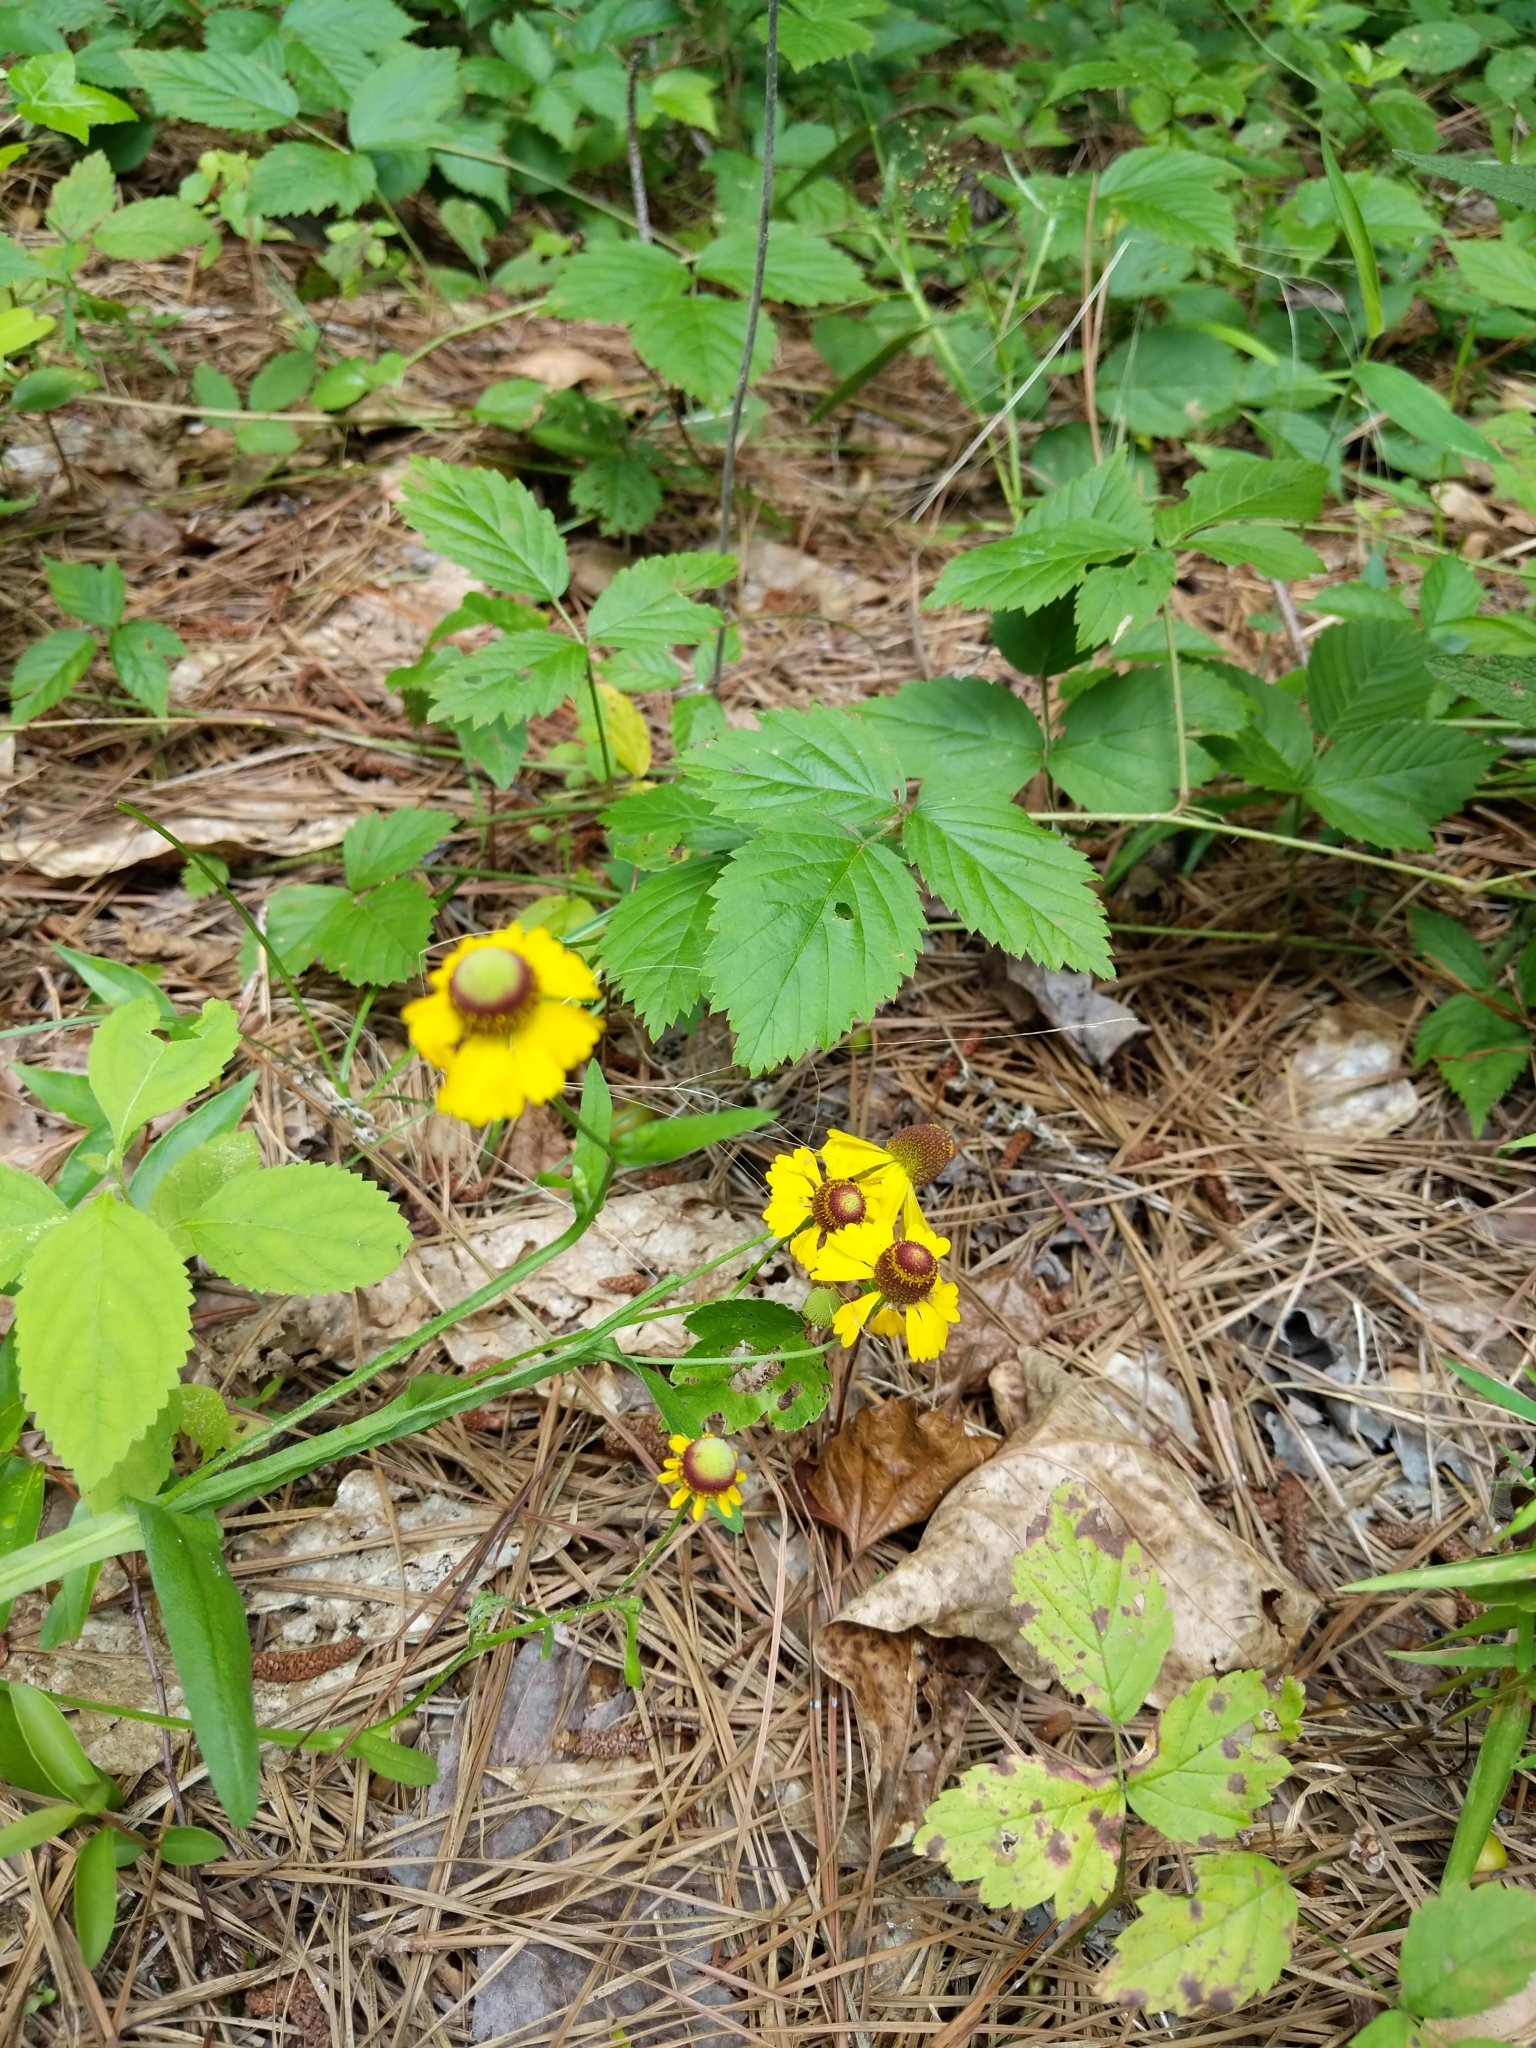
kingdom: Plantae
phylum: Tracheophyta
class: Magnoliopsida
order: Asterales
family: Asteraceae
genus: Helenium
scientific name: Helenium flexuosum
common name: Naked-flowered sneezeweed
